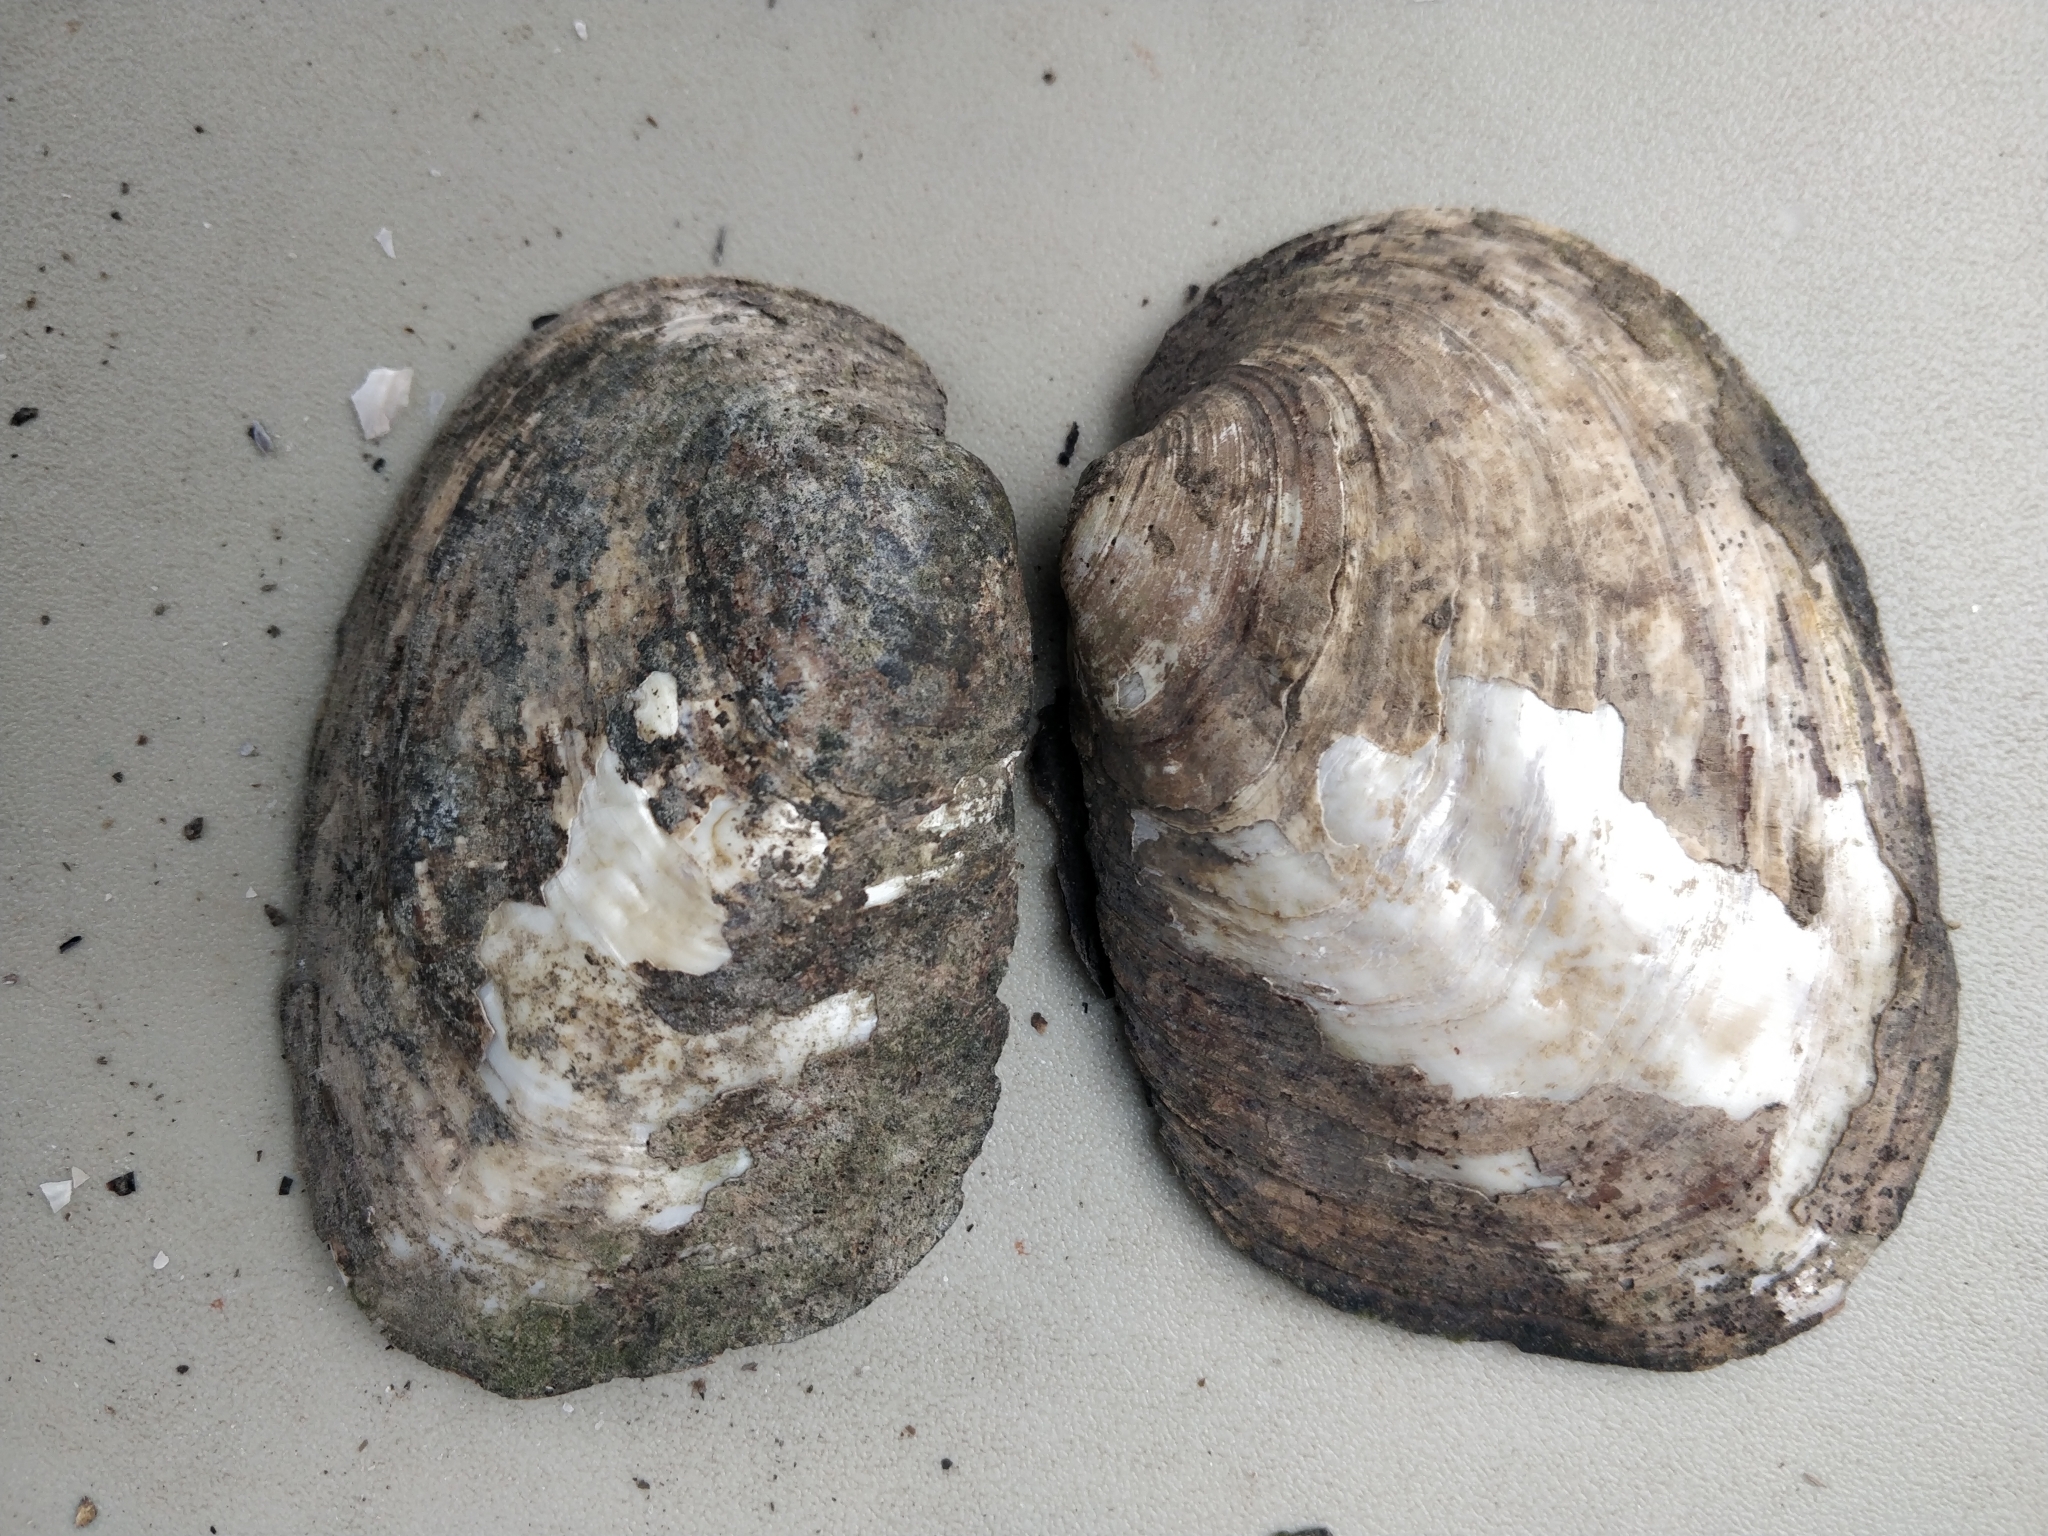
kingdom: Animalia
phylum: Mollusca
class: Bivalvia
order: Unionida
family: Unionidae
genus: Amblema
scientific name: Amblema plicata
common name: Threeridge
